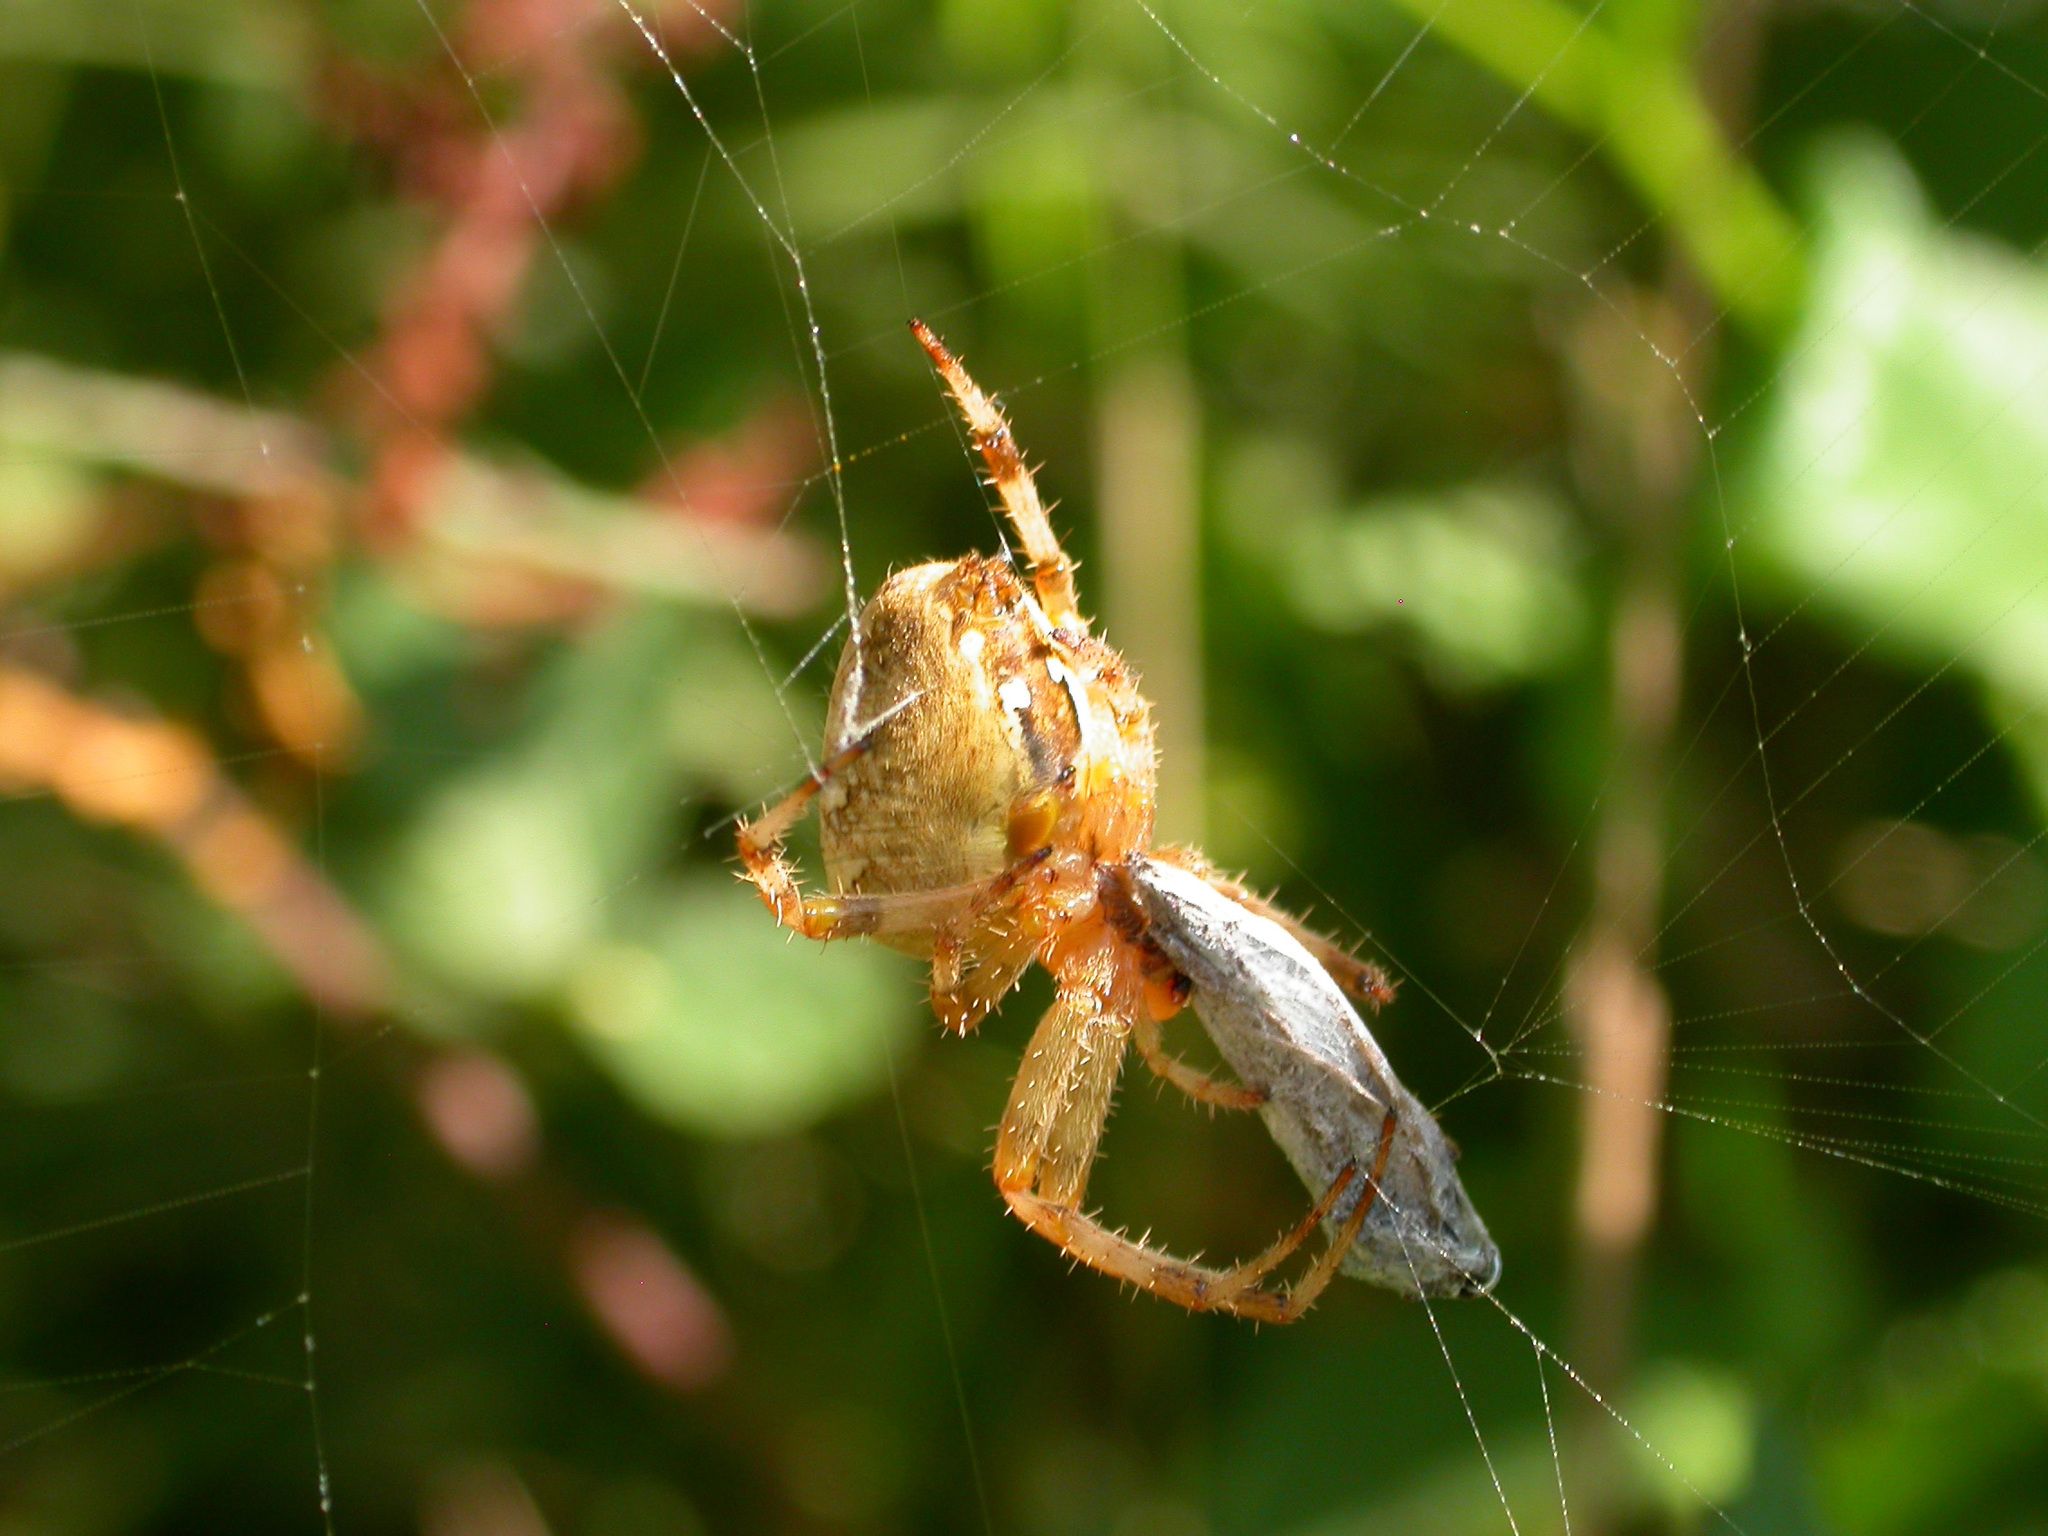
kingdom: Animalia
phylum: Arthropoda
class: Arachnida
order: Araneae
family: Araneidae
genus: Araneus
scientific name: Araneus diadematus
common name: Cross orbweaver
